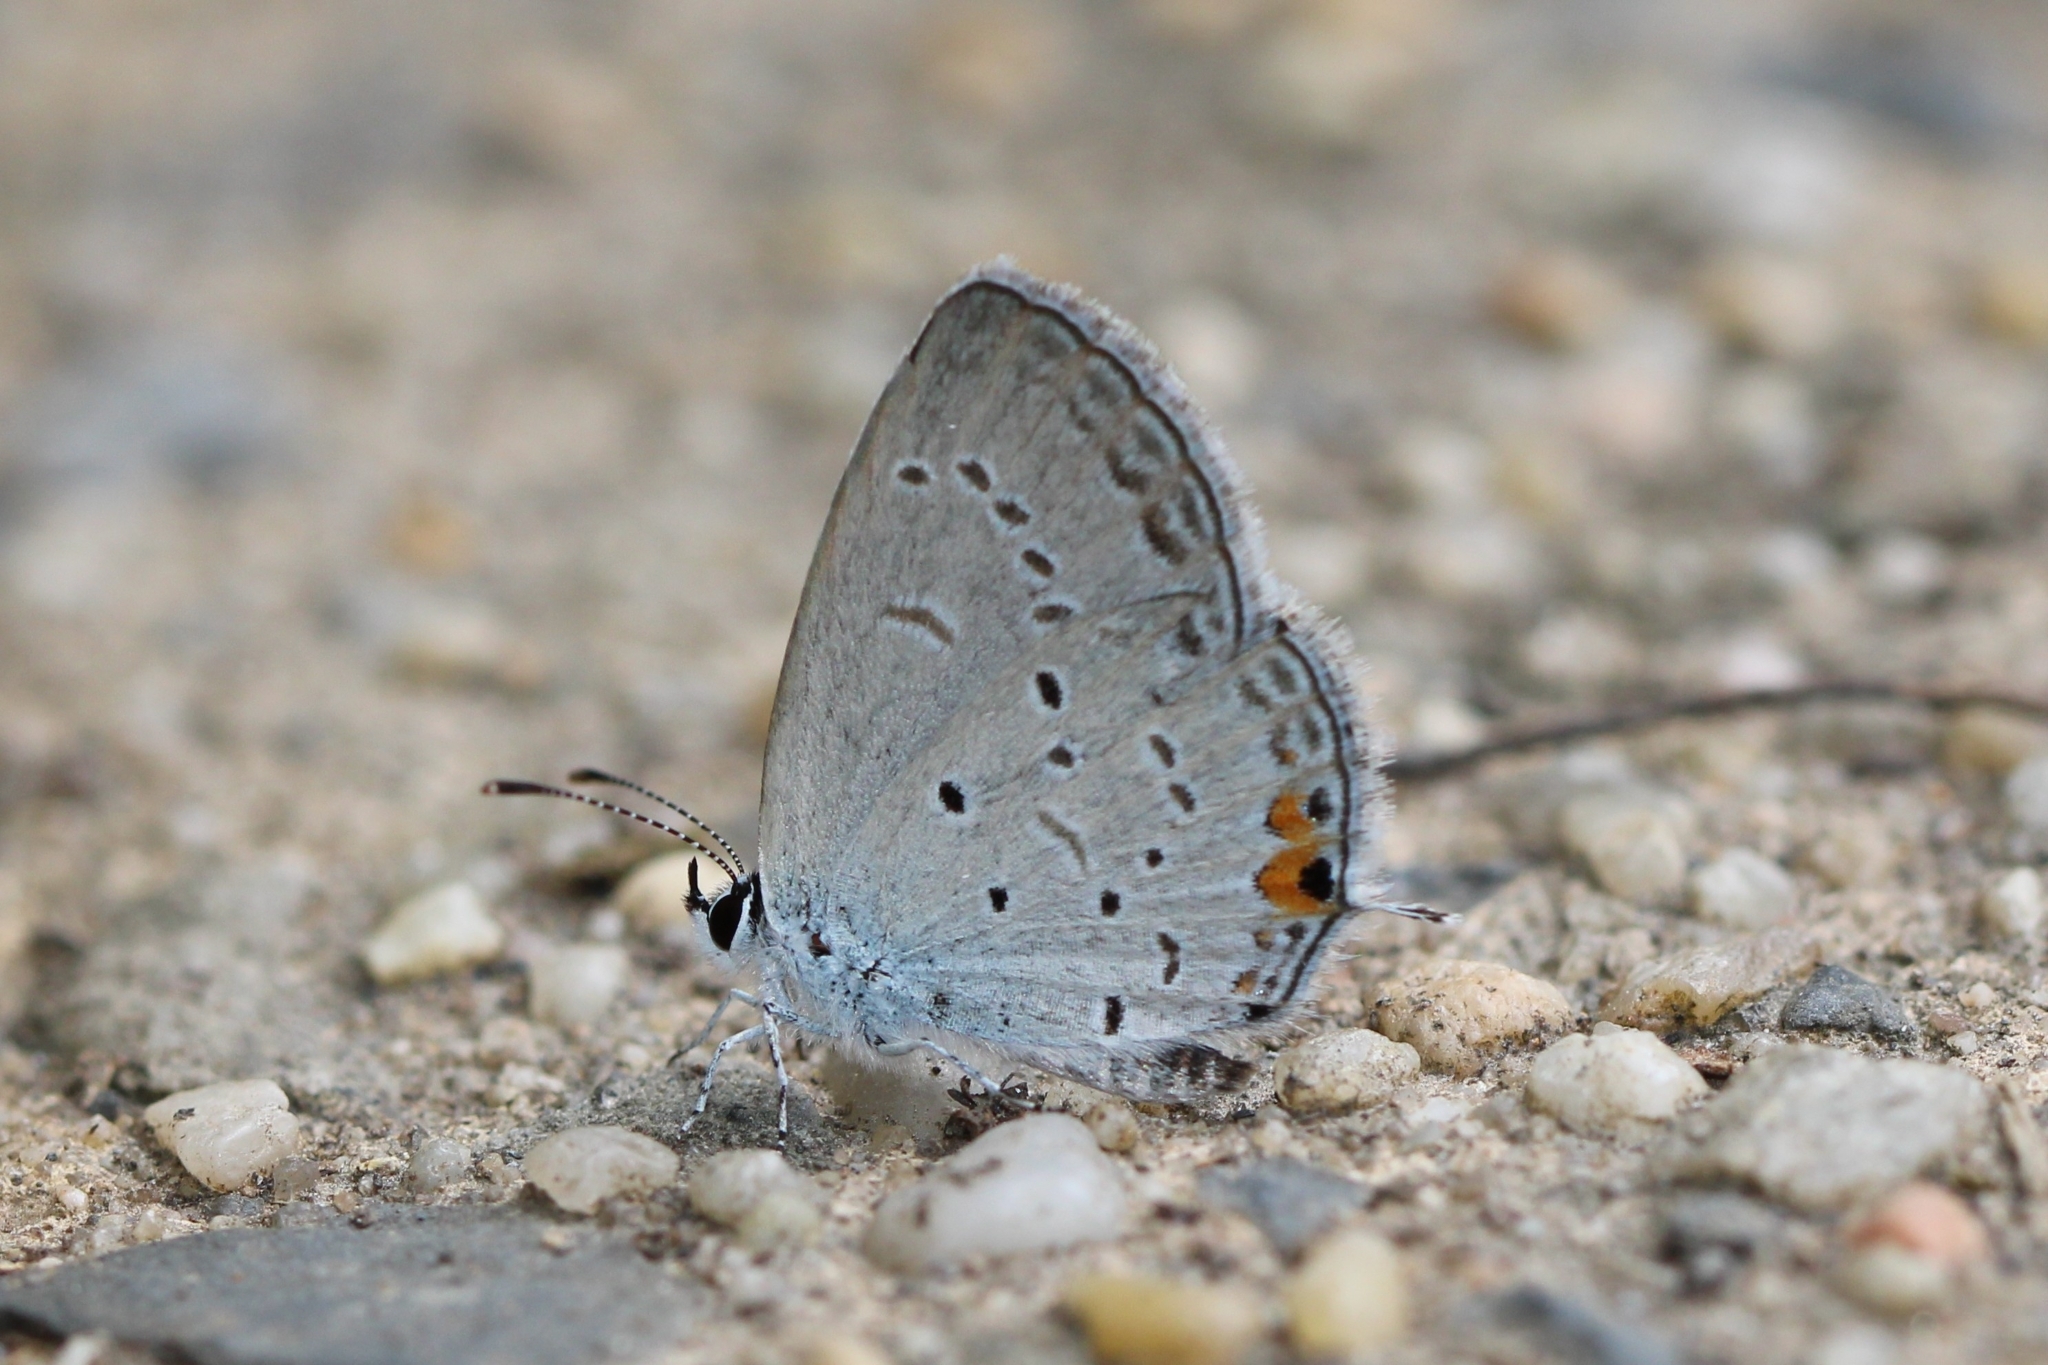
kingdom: Animalia
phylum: Arthropoda
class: Insecta
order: Lepidoptera
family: Lycaenidae
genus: Elkalyce
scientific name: Elkalyce comyntas
